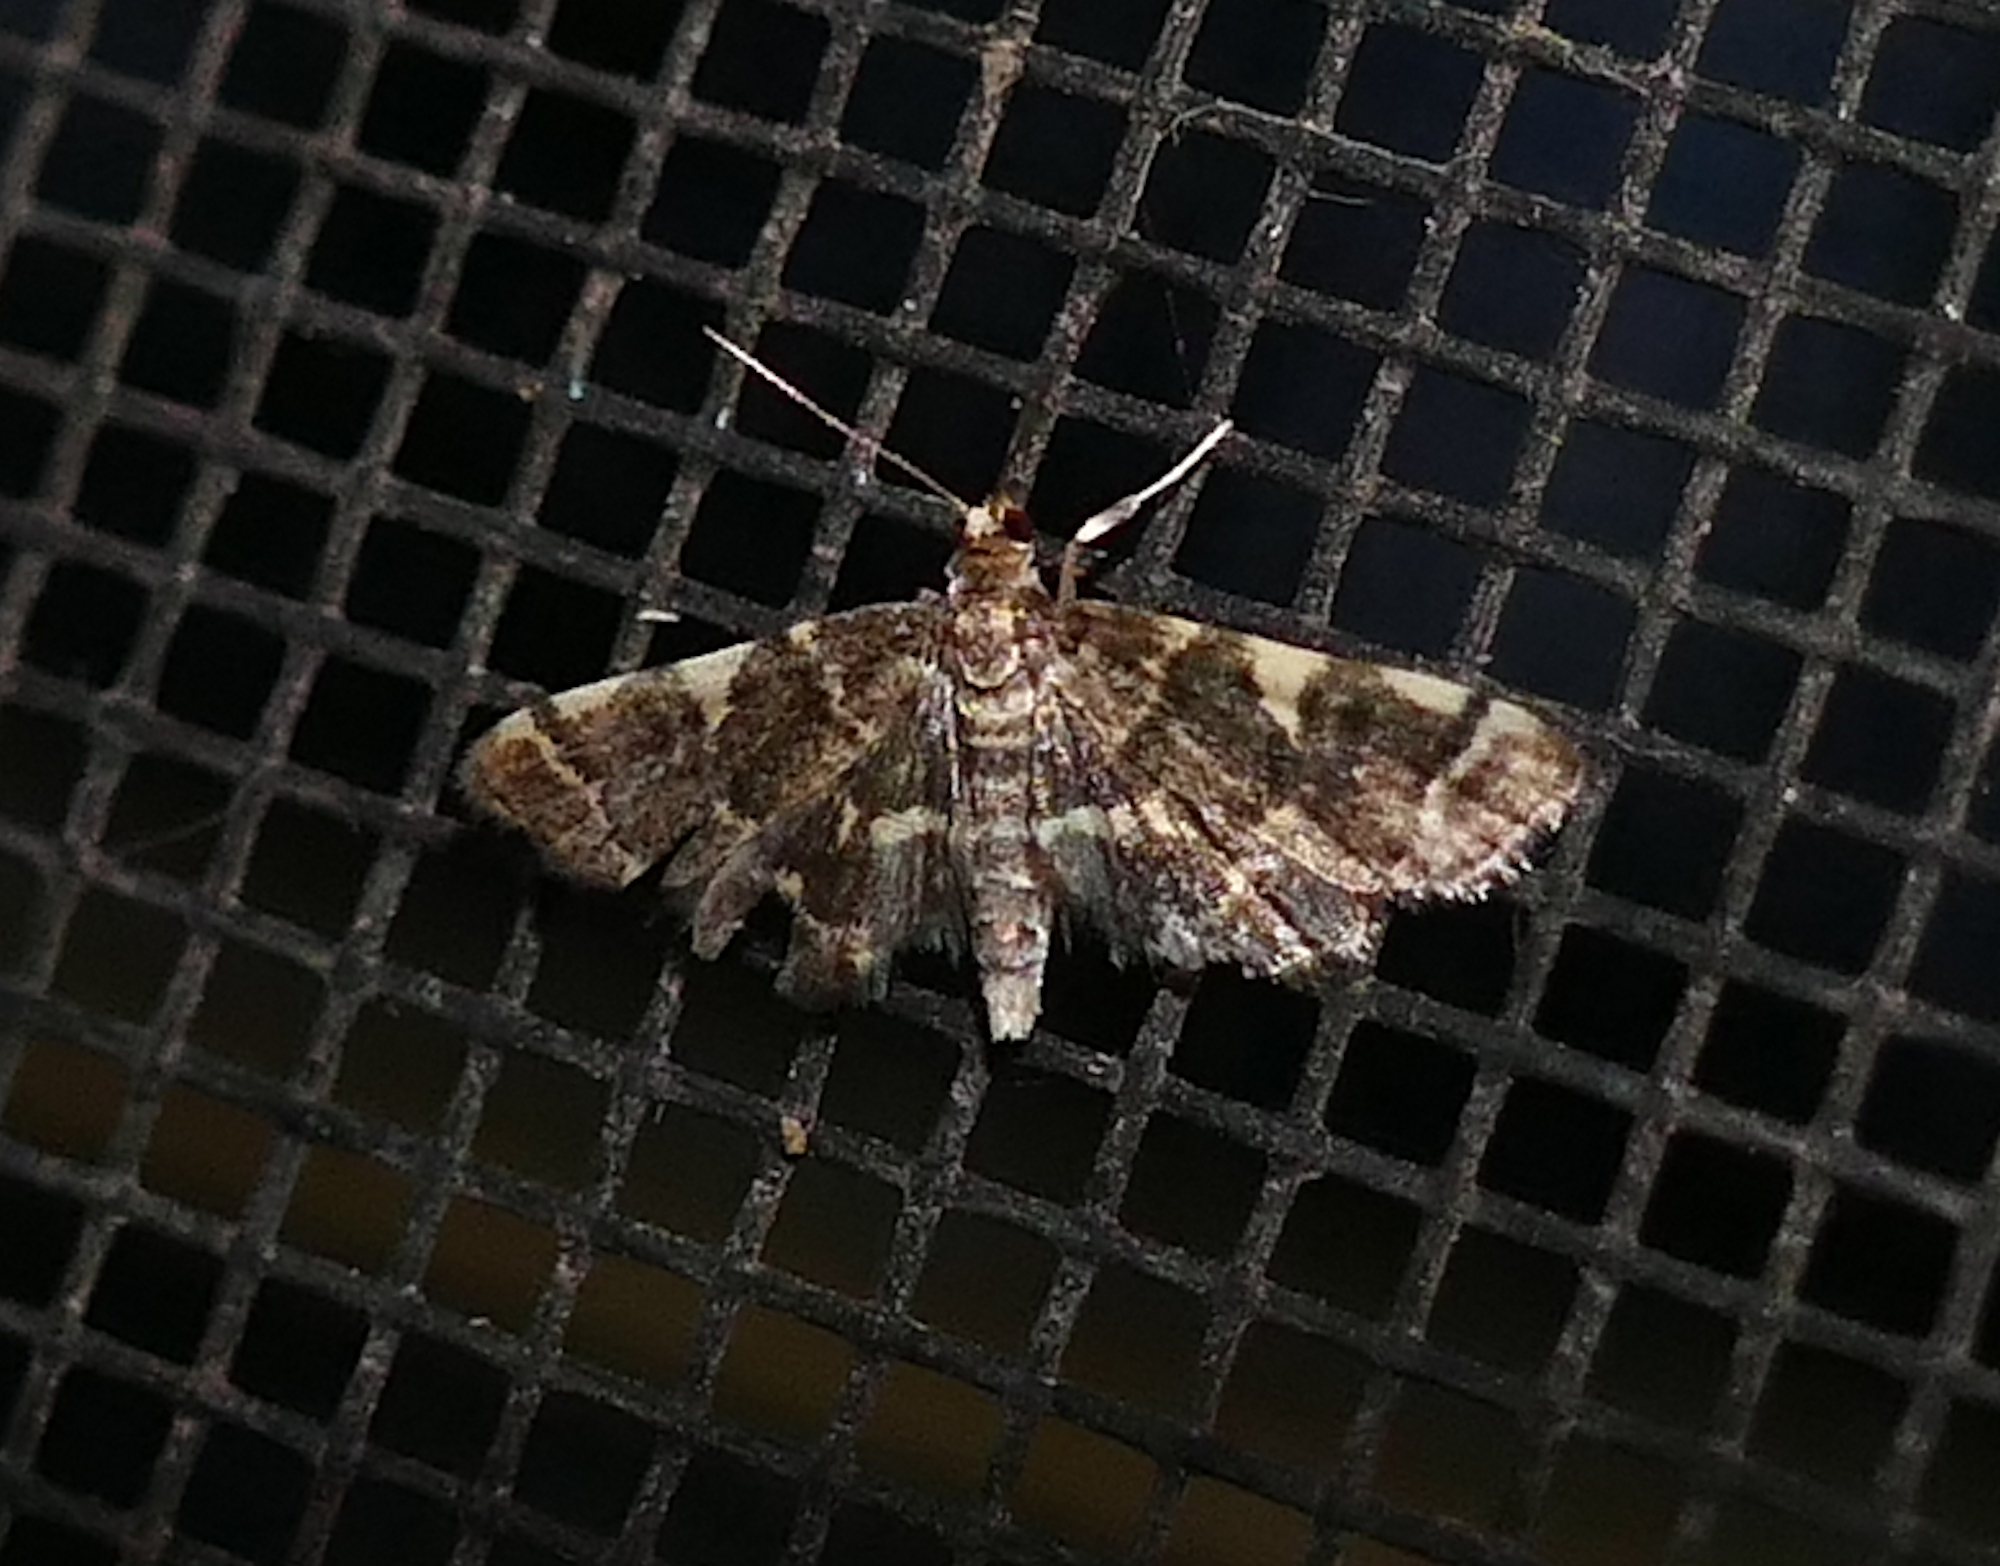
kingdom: Animalia
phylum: Arthropoda
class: Insecta
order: Lepidoptera
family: Crambidae
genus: Anageshna
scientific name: Anageshna primordialis
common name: Yellow-spotted webworm moth
